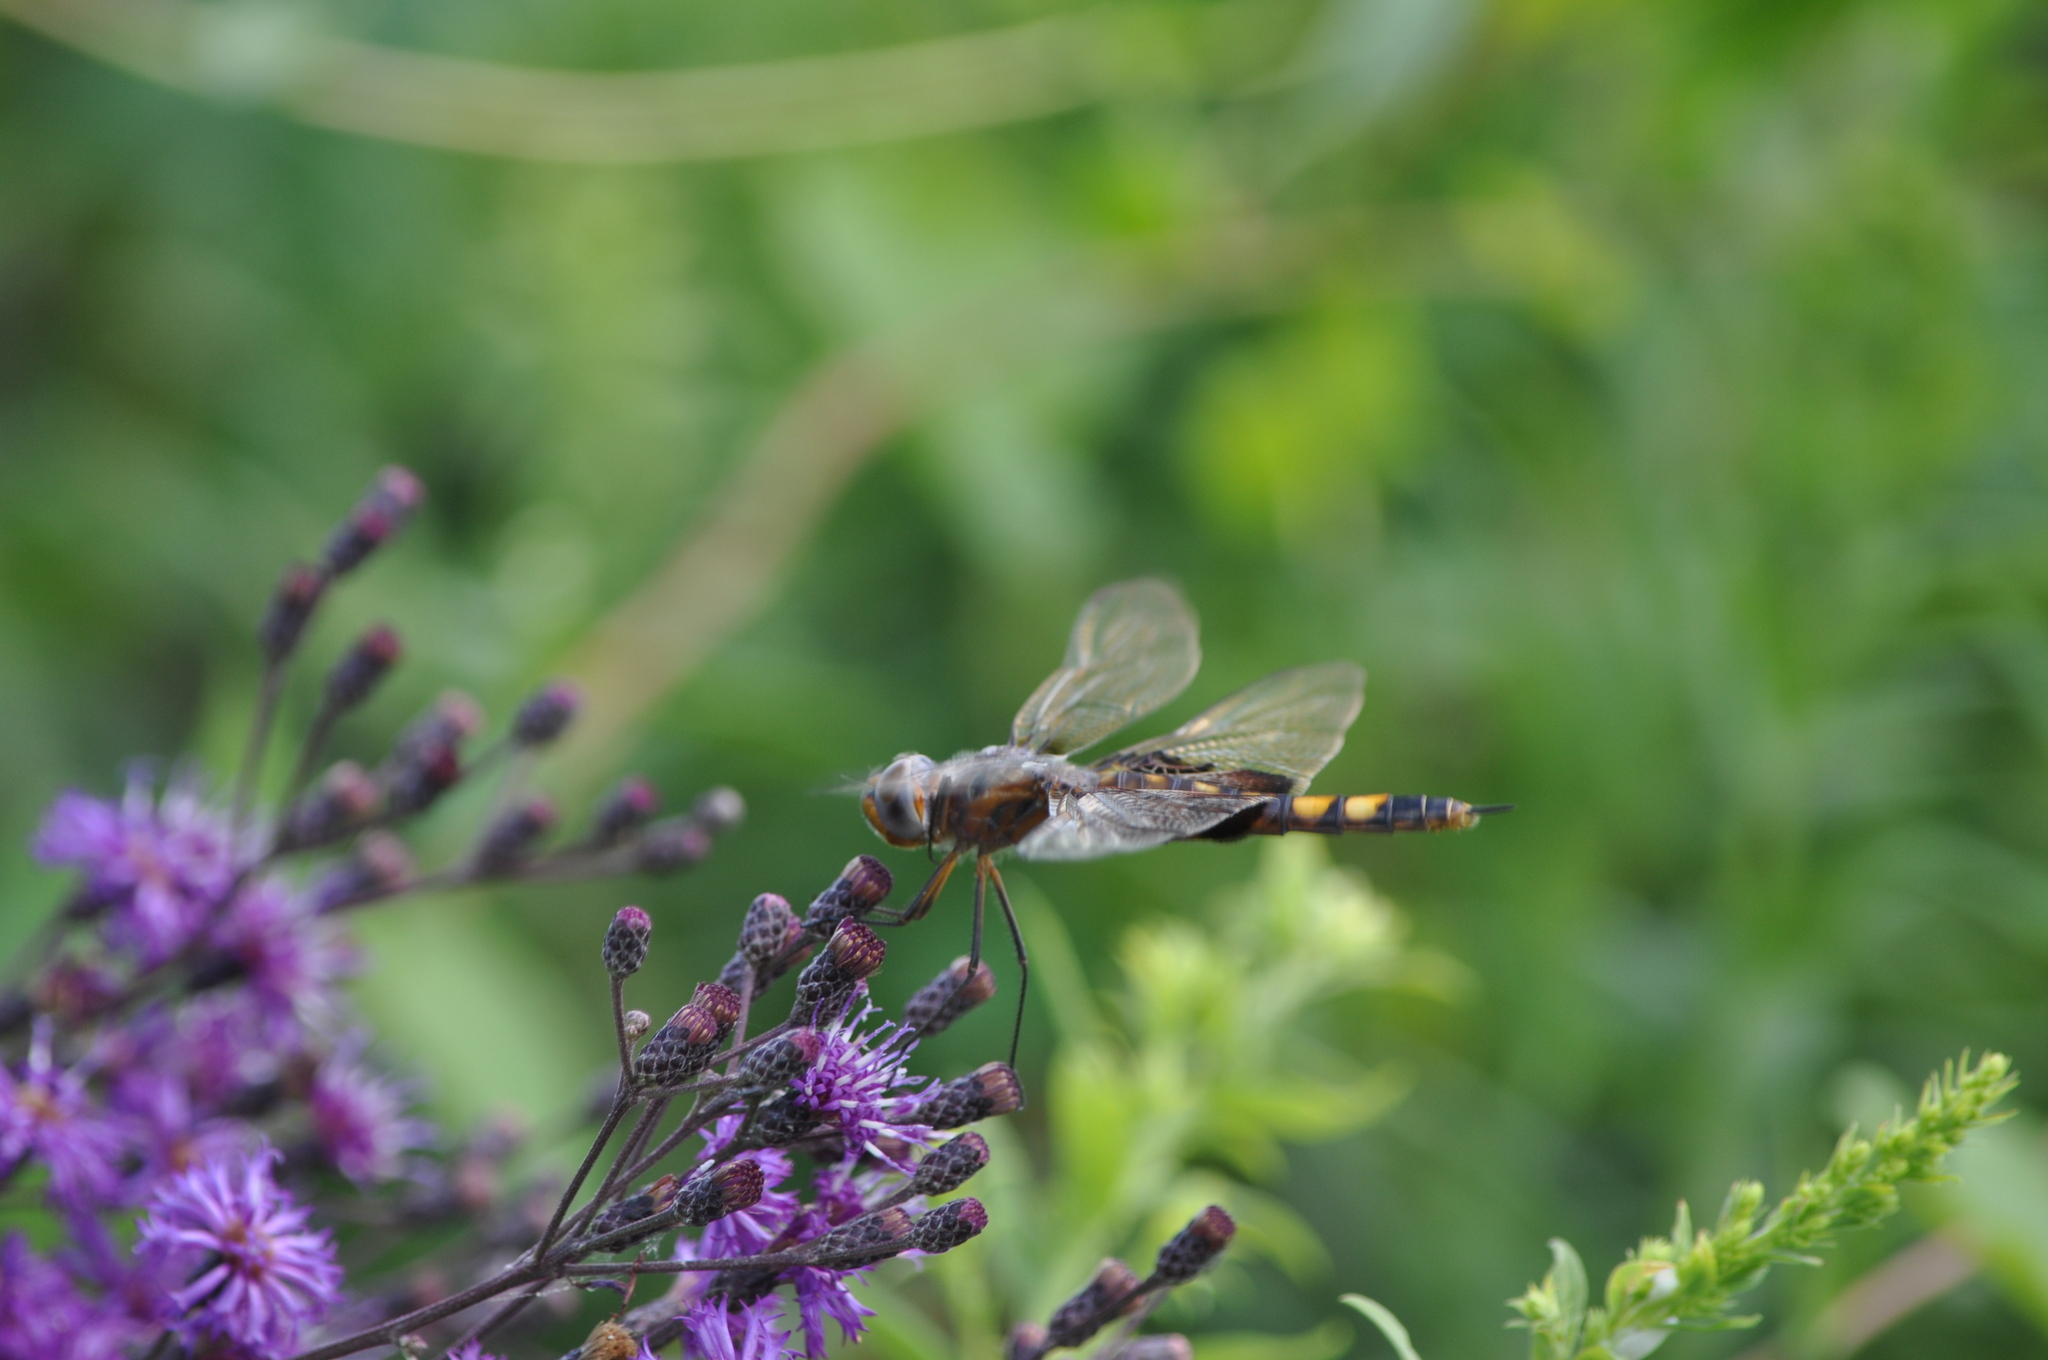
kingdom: Animalia
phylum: Arthropoda
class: Insecta
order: Odonata
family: Libellulidae
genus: Tramea
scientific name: Tramea lacerata
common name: Black saddlebags
